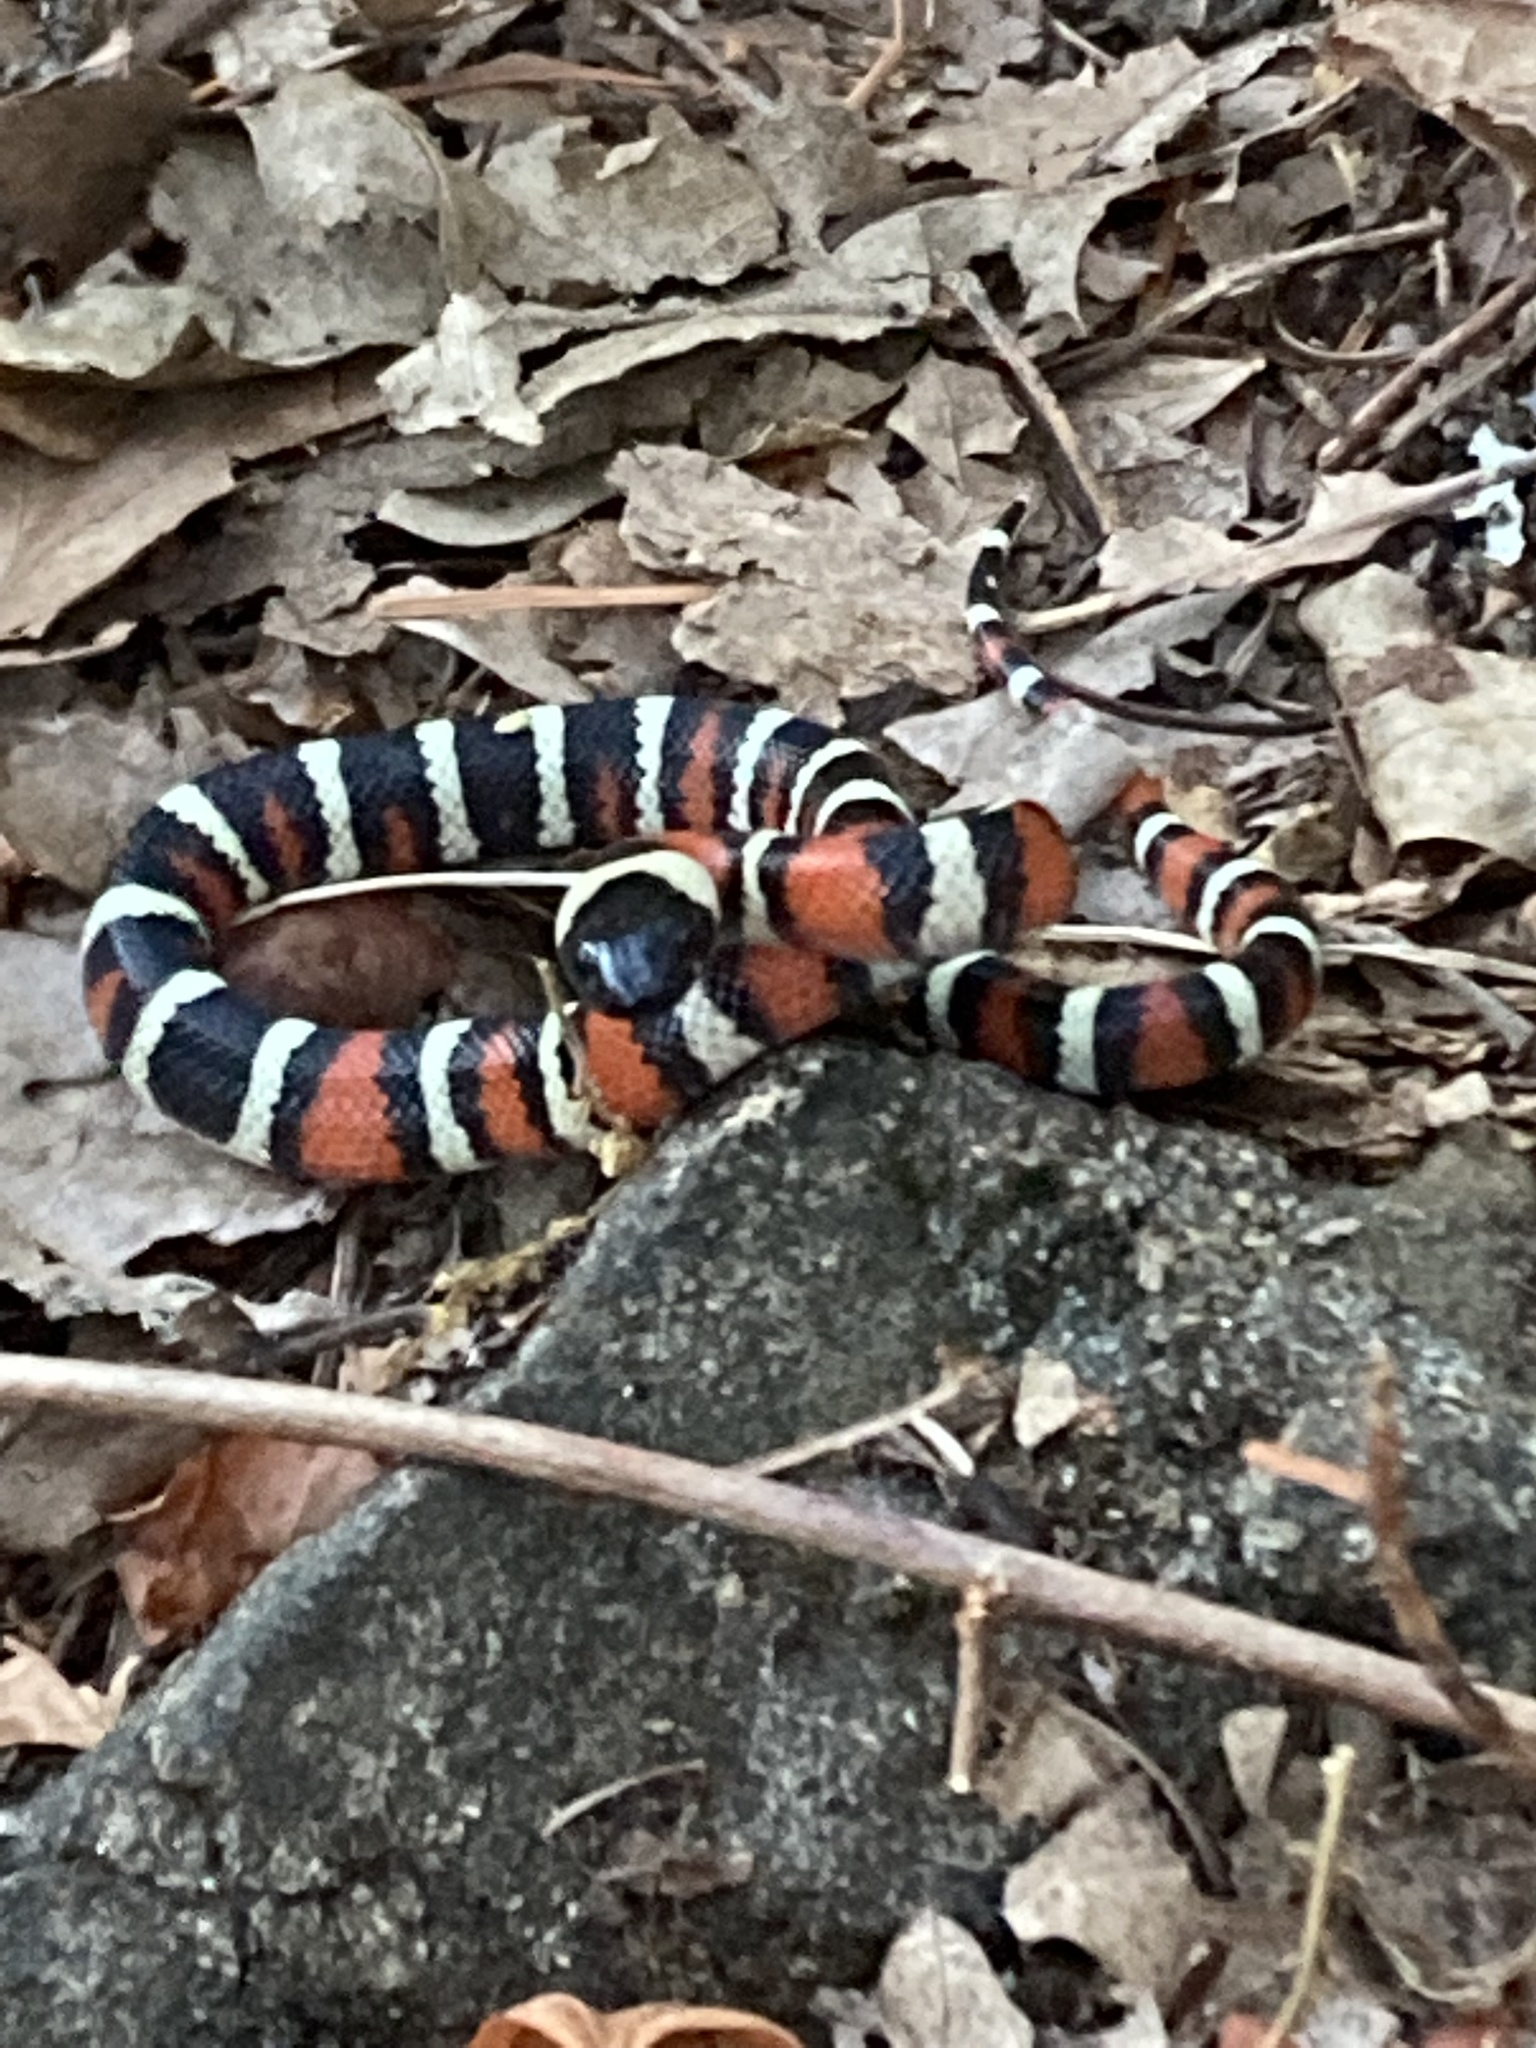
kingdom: Animalia
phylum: Chordata
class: Squamata
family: Colubridae
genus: Lampropeltis
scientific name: Lampropeltis zonata
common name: California mountain kingsnake
